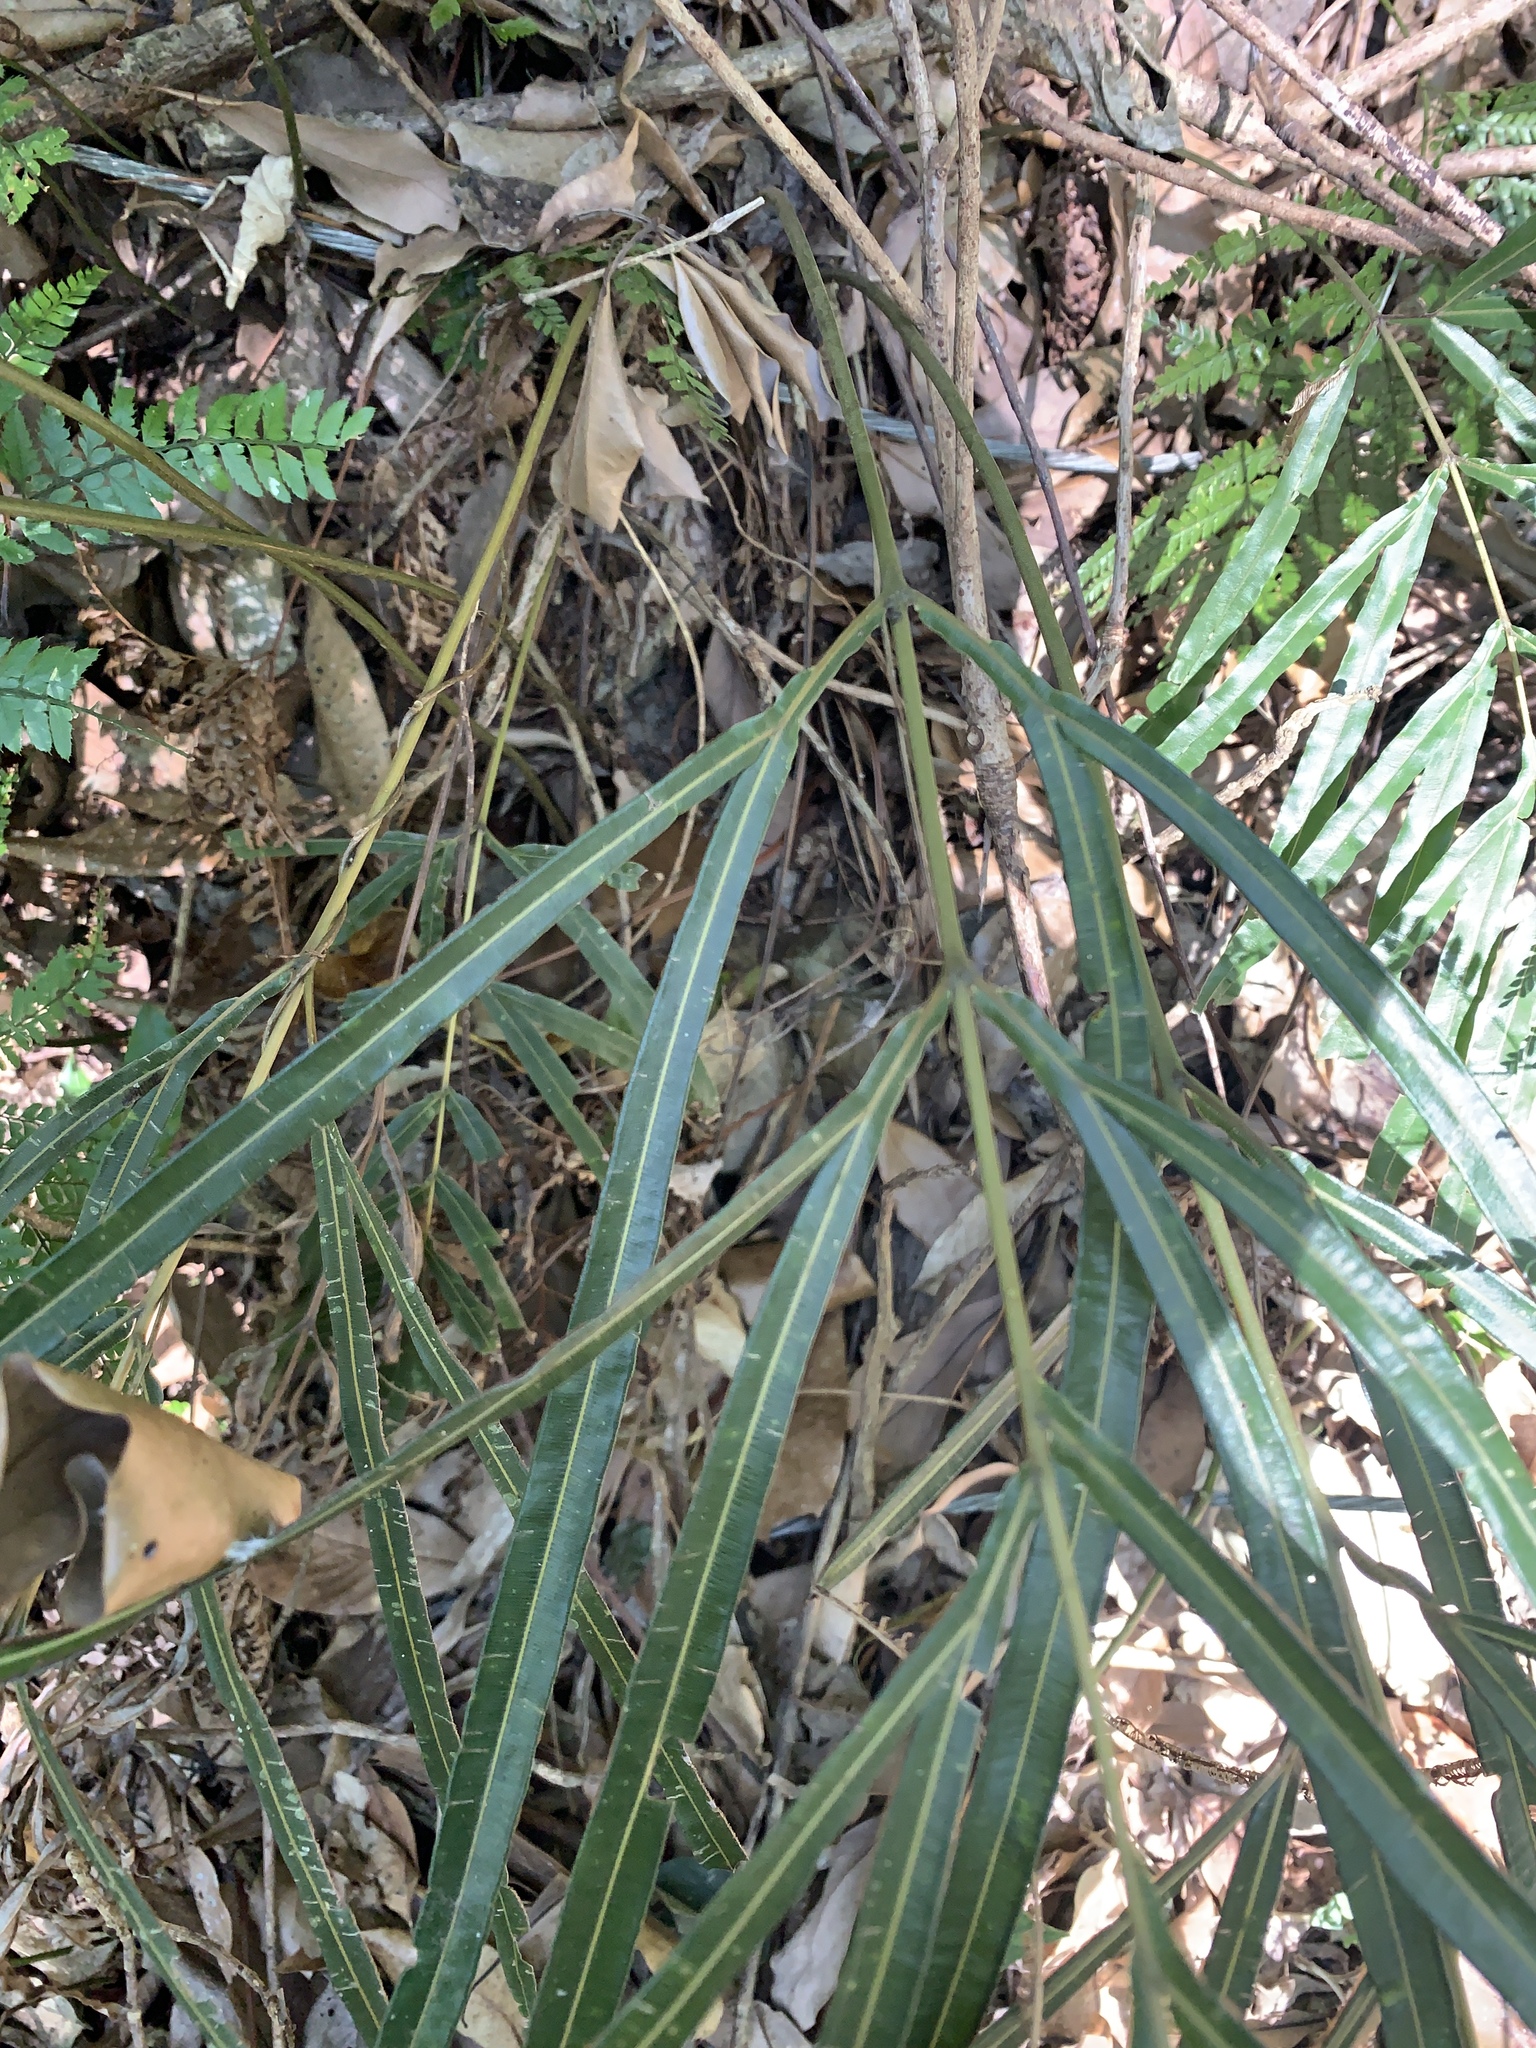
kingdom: Plantae
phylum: Tracheophyta
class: Polypodiopsida
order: Polypodiales
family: Pteridaceae
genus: Pteris
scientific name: Pteris longipinna
